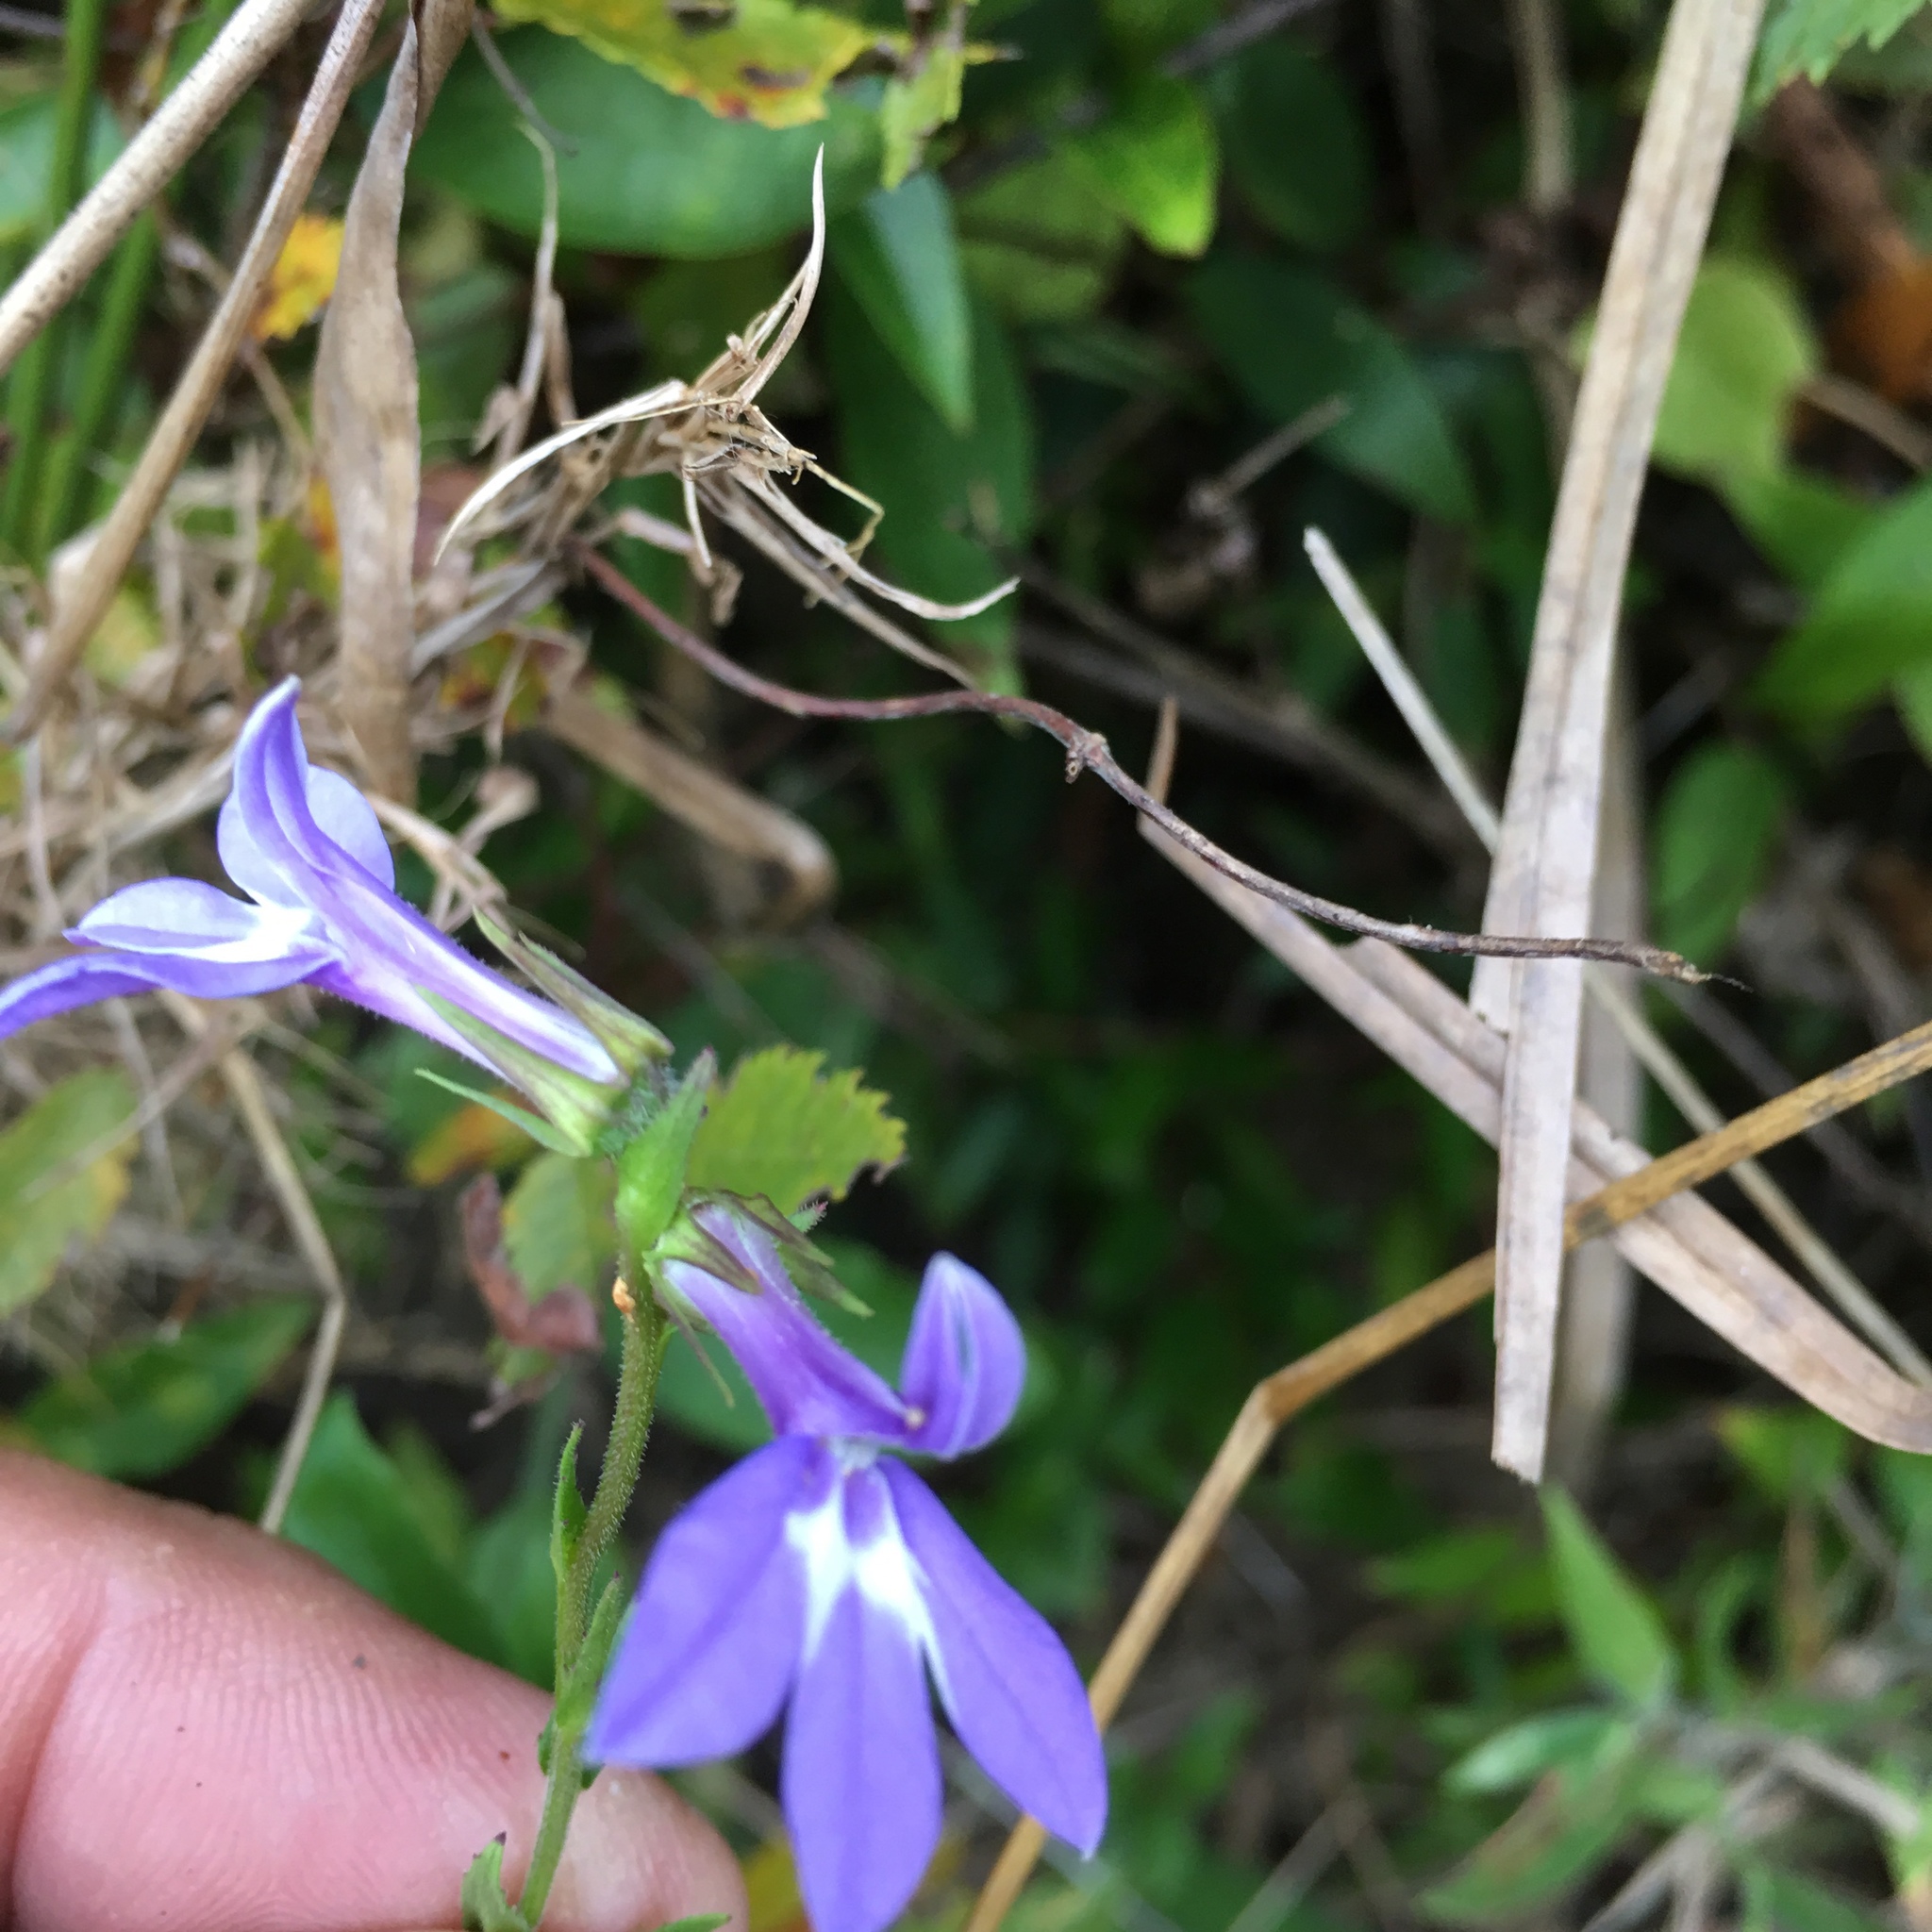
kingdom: Plantae
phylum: Tracheophyta
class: Magnoliopsida
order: Asterales
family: Campanulaceae
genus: Lobelia
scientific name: Lobelia puberula
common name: Purple dewdrop
